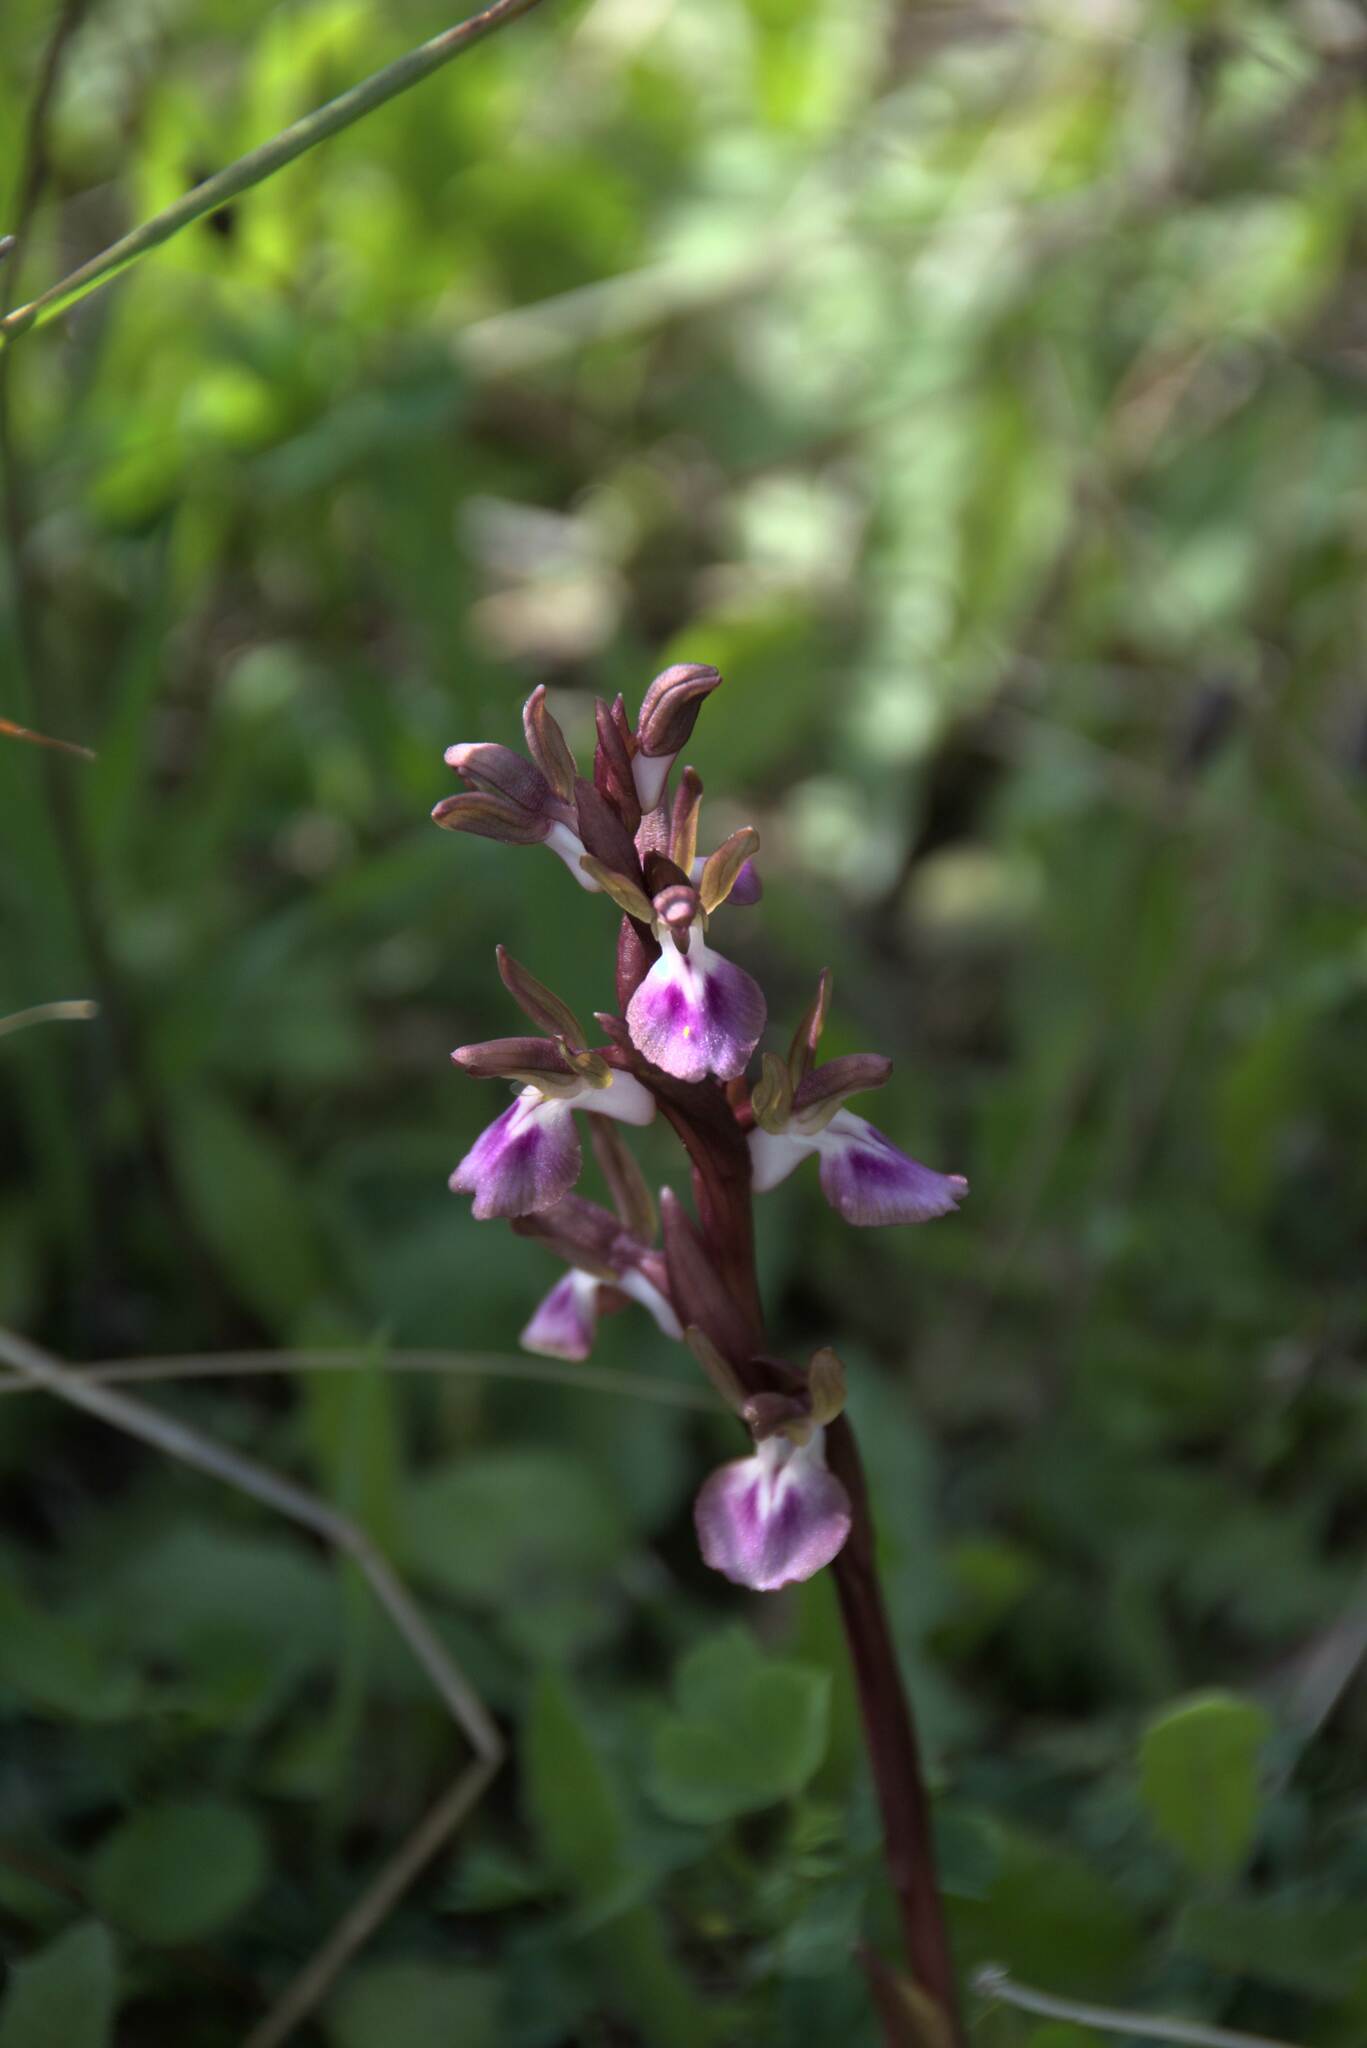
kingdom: Plantae
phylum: Tracheophyta
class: Liliopsida
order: Asparagales
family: Orchidaceae
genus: Anacamptis
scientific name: Anacamptis collina
